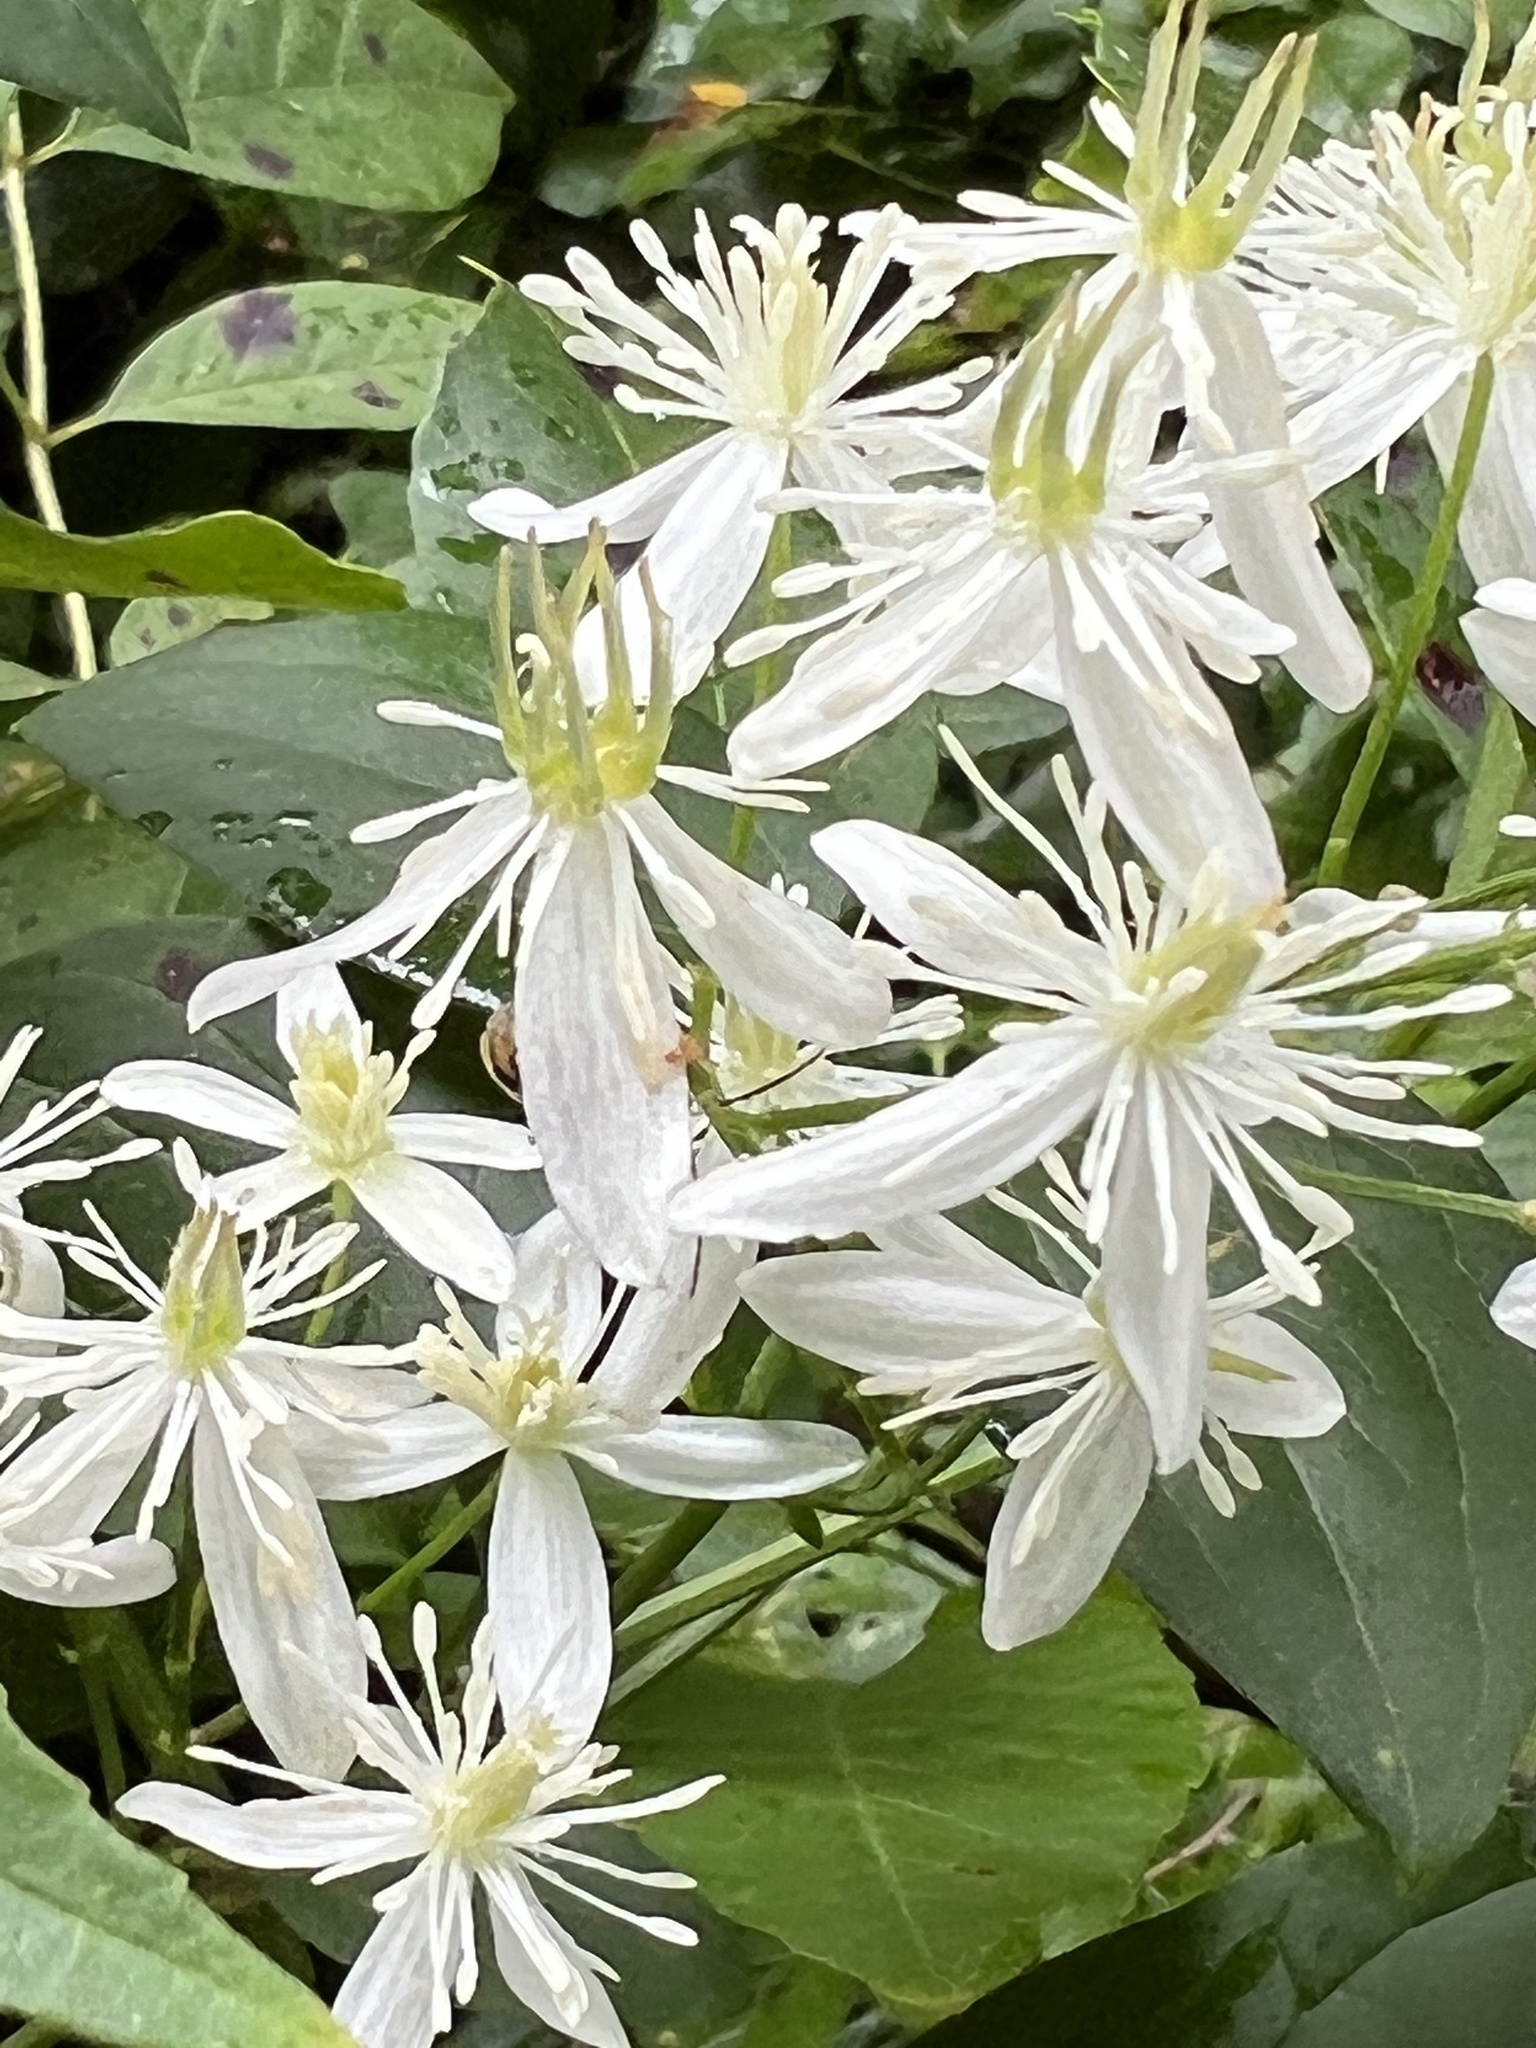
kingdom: Plantae
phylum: Tracheophyta
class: Magnoliopsida
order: Ranunculales
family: Ranunculaceae
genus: Clematis
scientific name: Clematis terniflora
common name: Sweet autumn clematis
